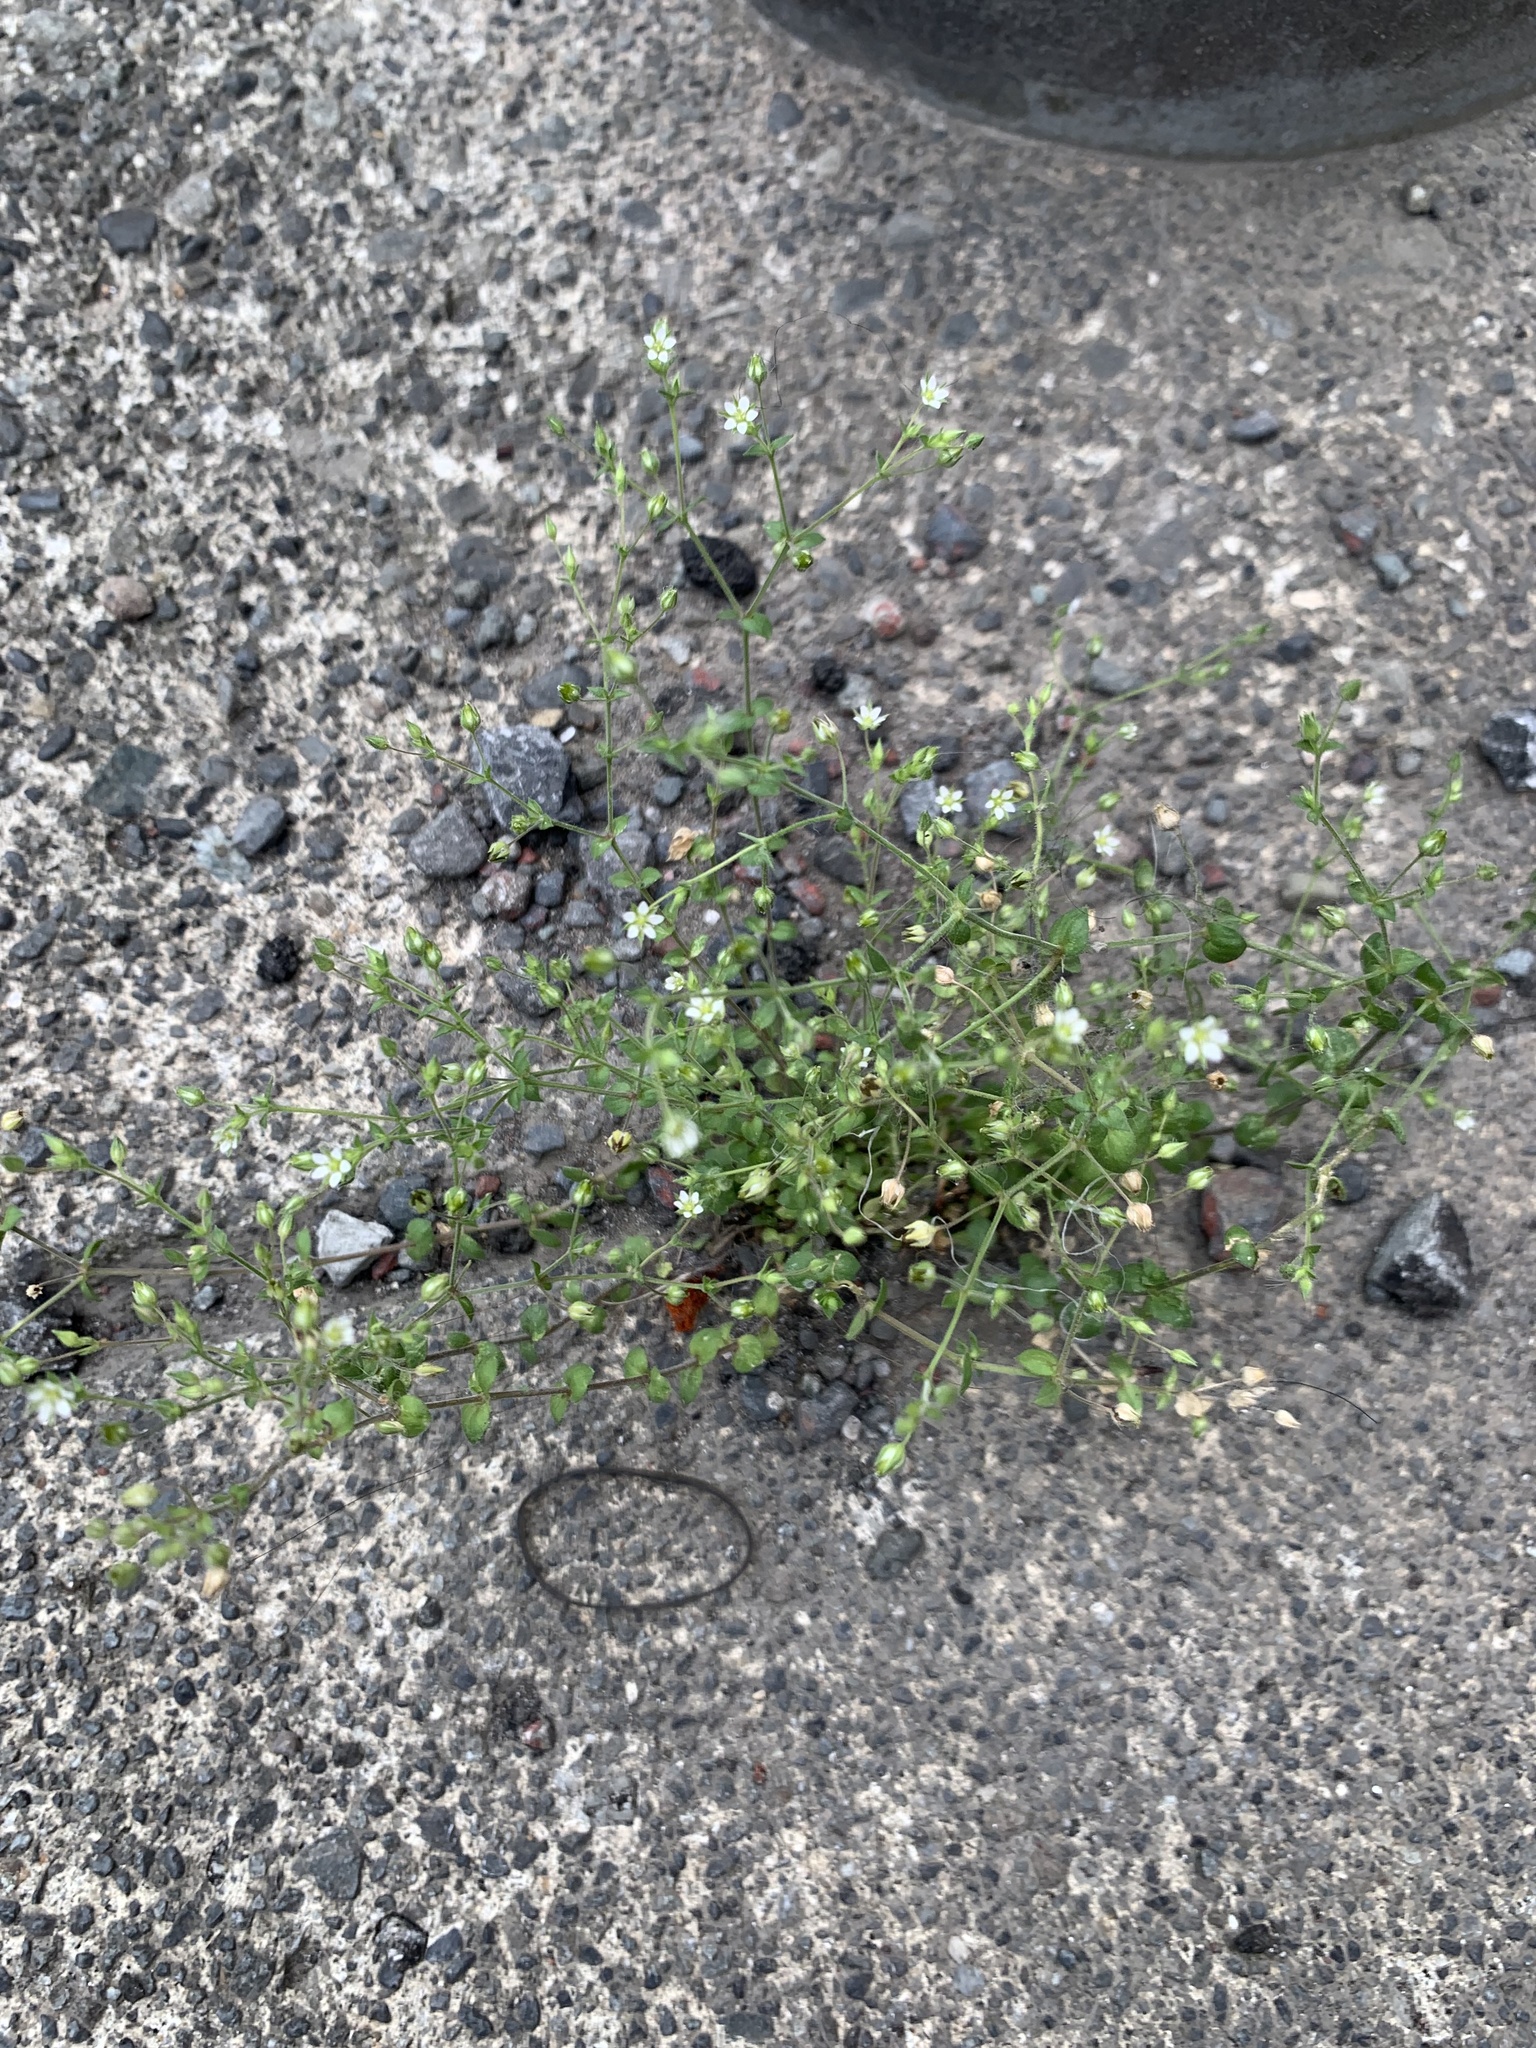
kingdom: Plantae
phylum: Tracheophyta
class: Magnoliopsida
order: Caryophyllales
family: Caryophyllaceae
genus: Arenaria
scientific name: Arenaria serpyllifolia
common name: Thyme-leaved sandwort
